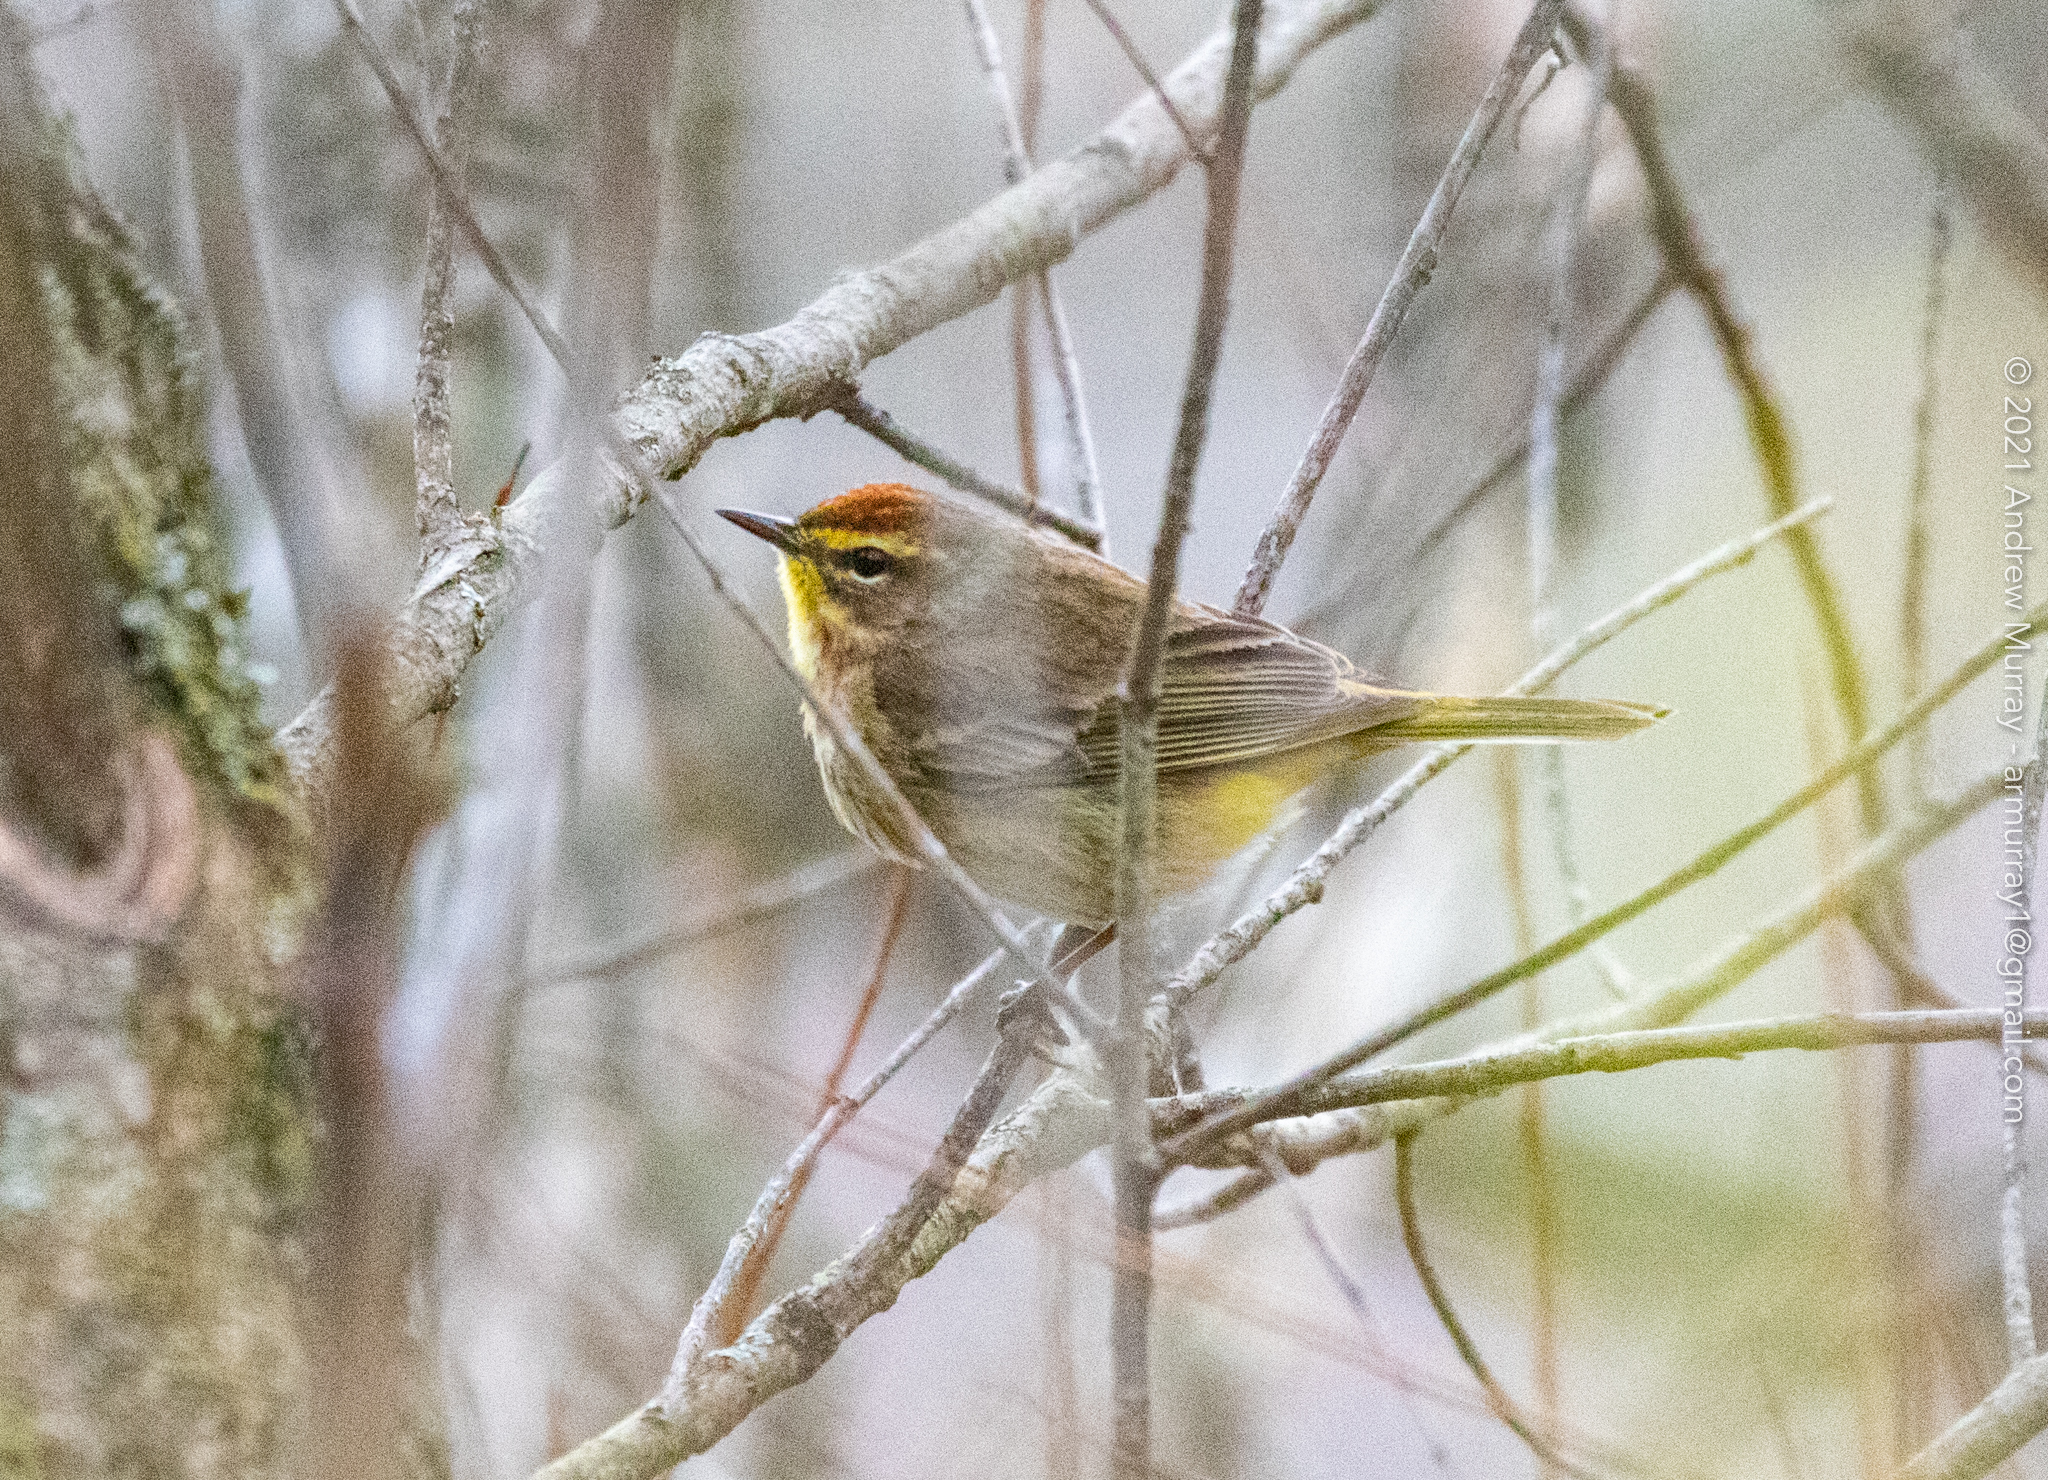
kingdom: Animalia
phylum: Chordata
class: Aves
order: Passeriformes
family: Parulidae
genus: Setophaga
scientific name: Setophaga palmarum
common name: Palm warbler
